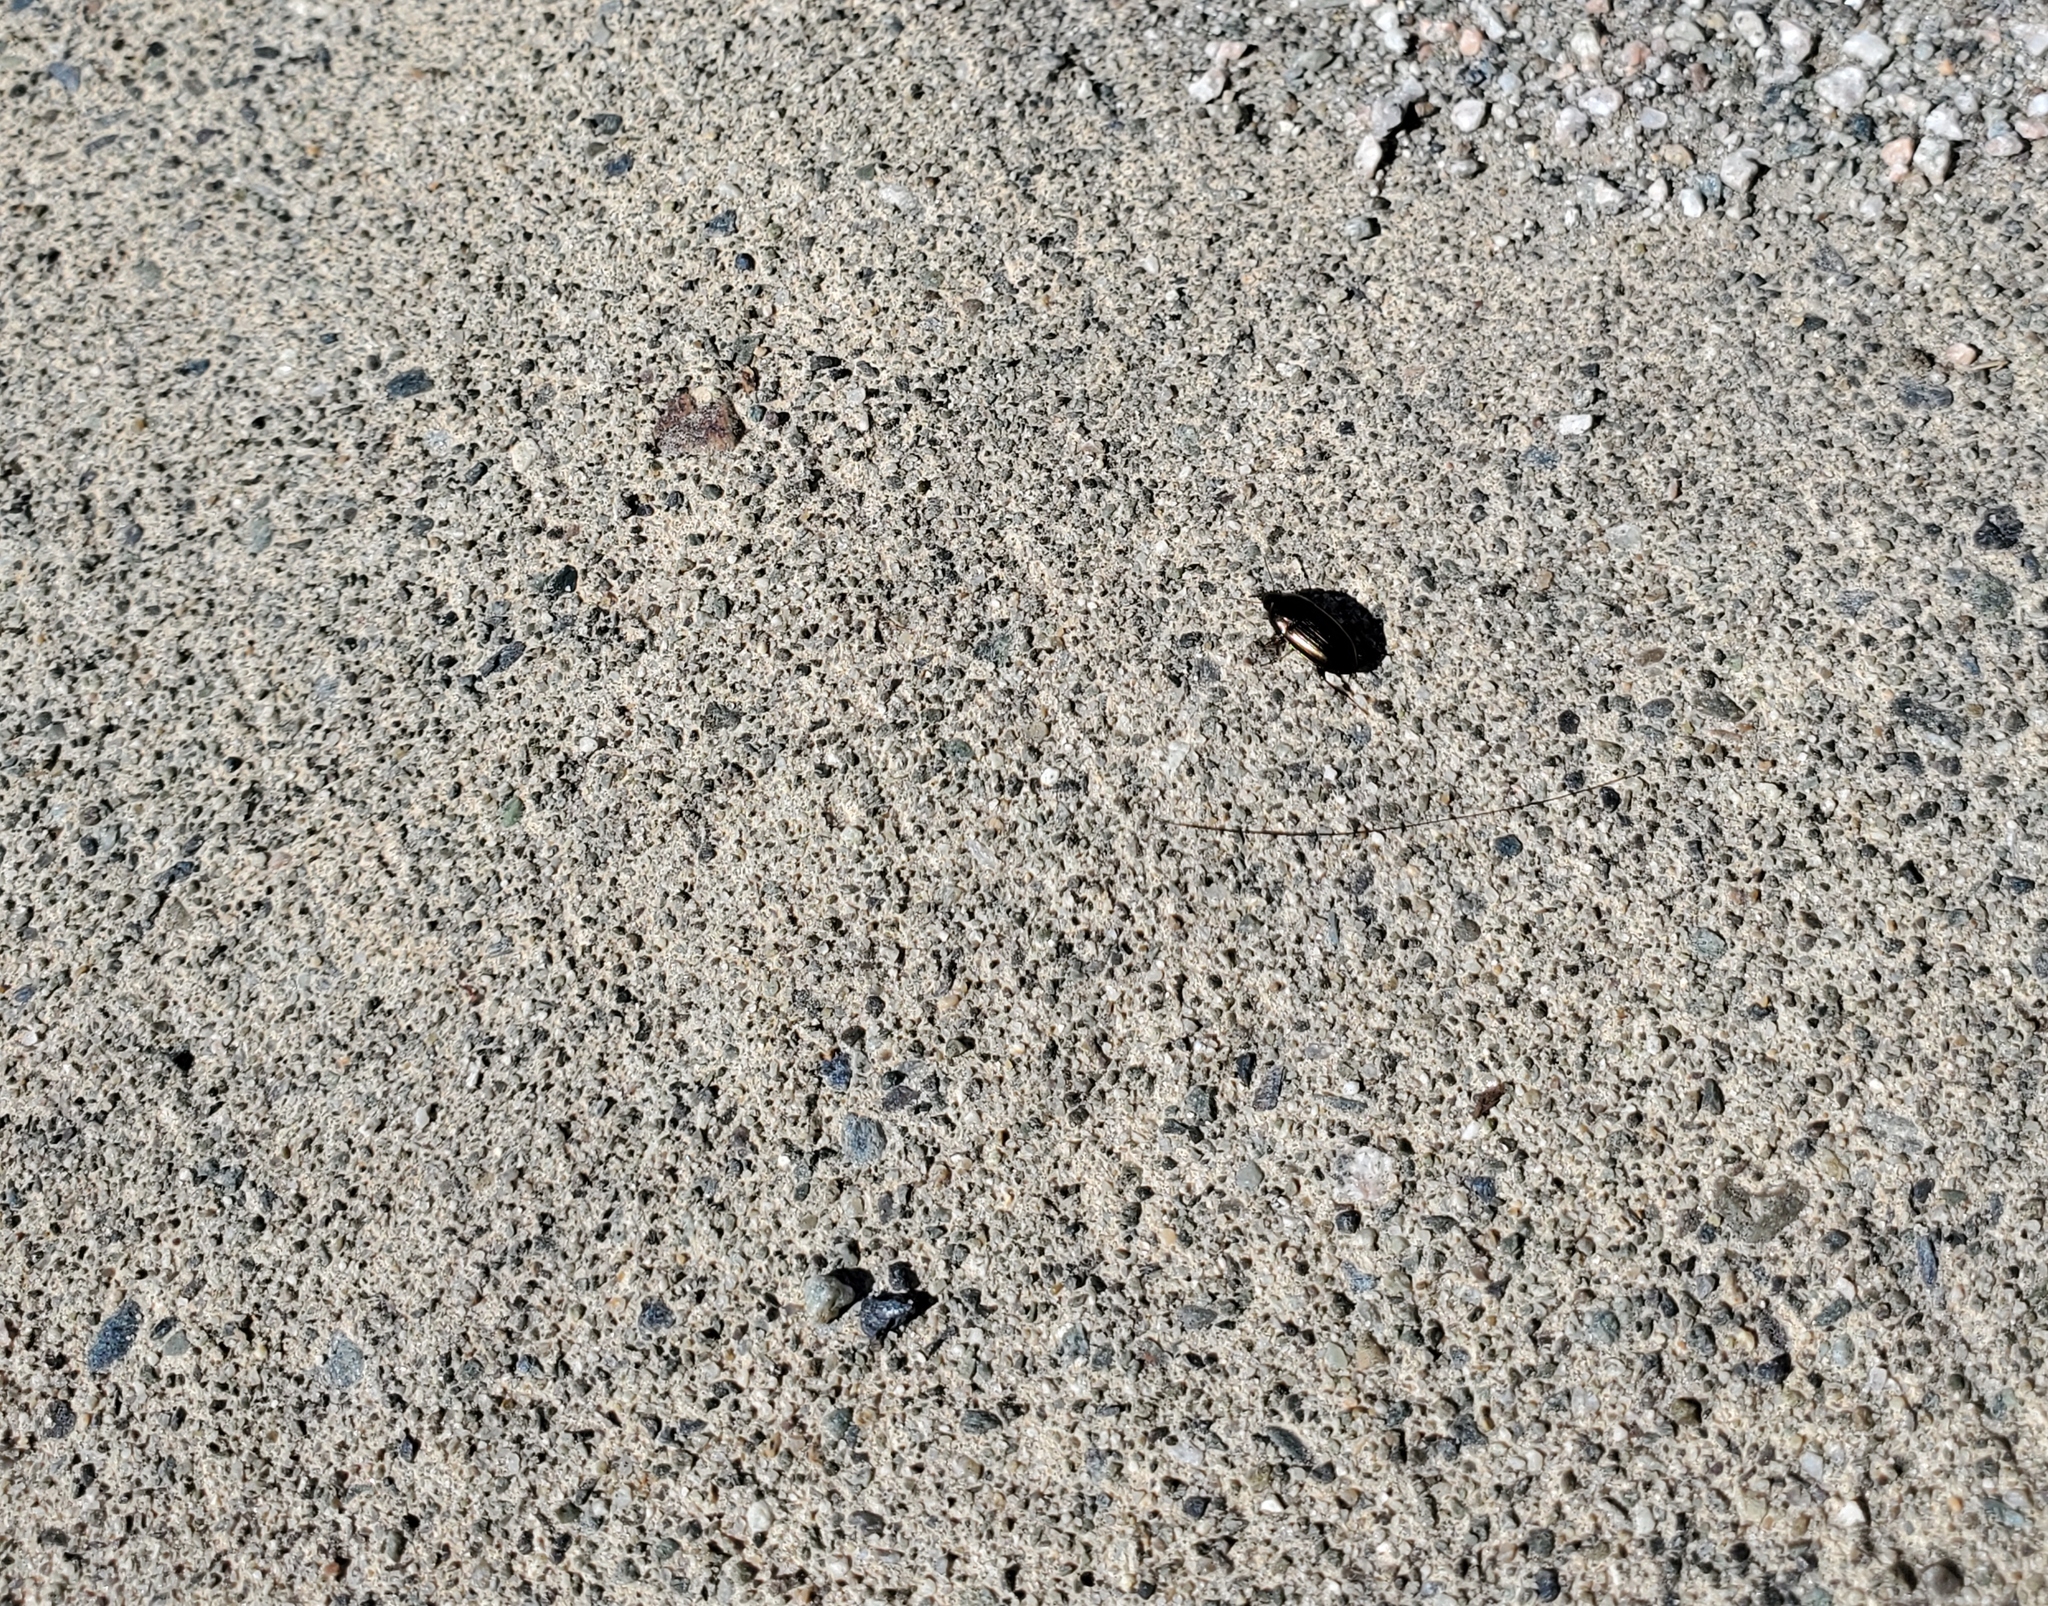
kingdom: Animalia
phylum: Arthropoda
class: Insecta
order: Coleoptera
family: Carabidae
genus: Amara
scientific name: Amara
